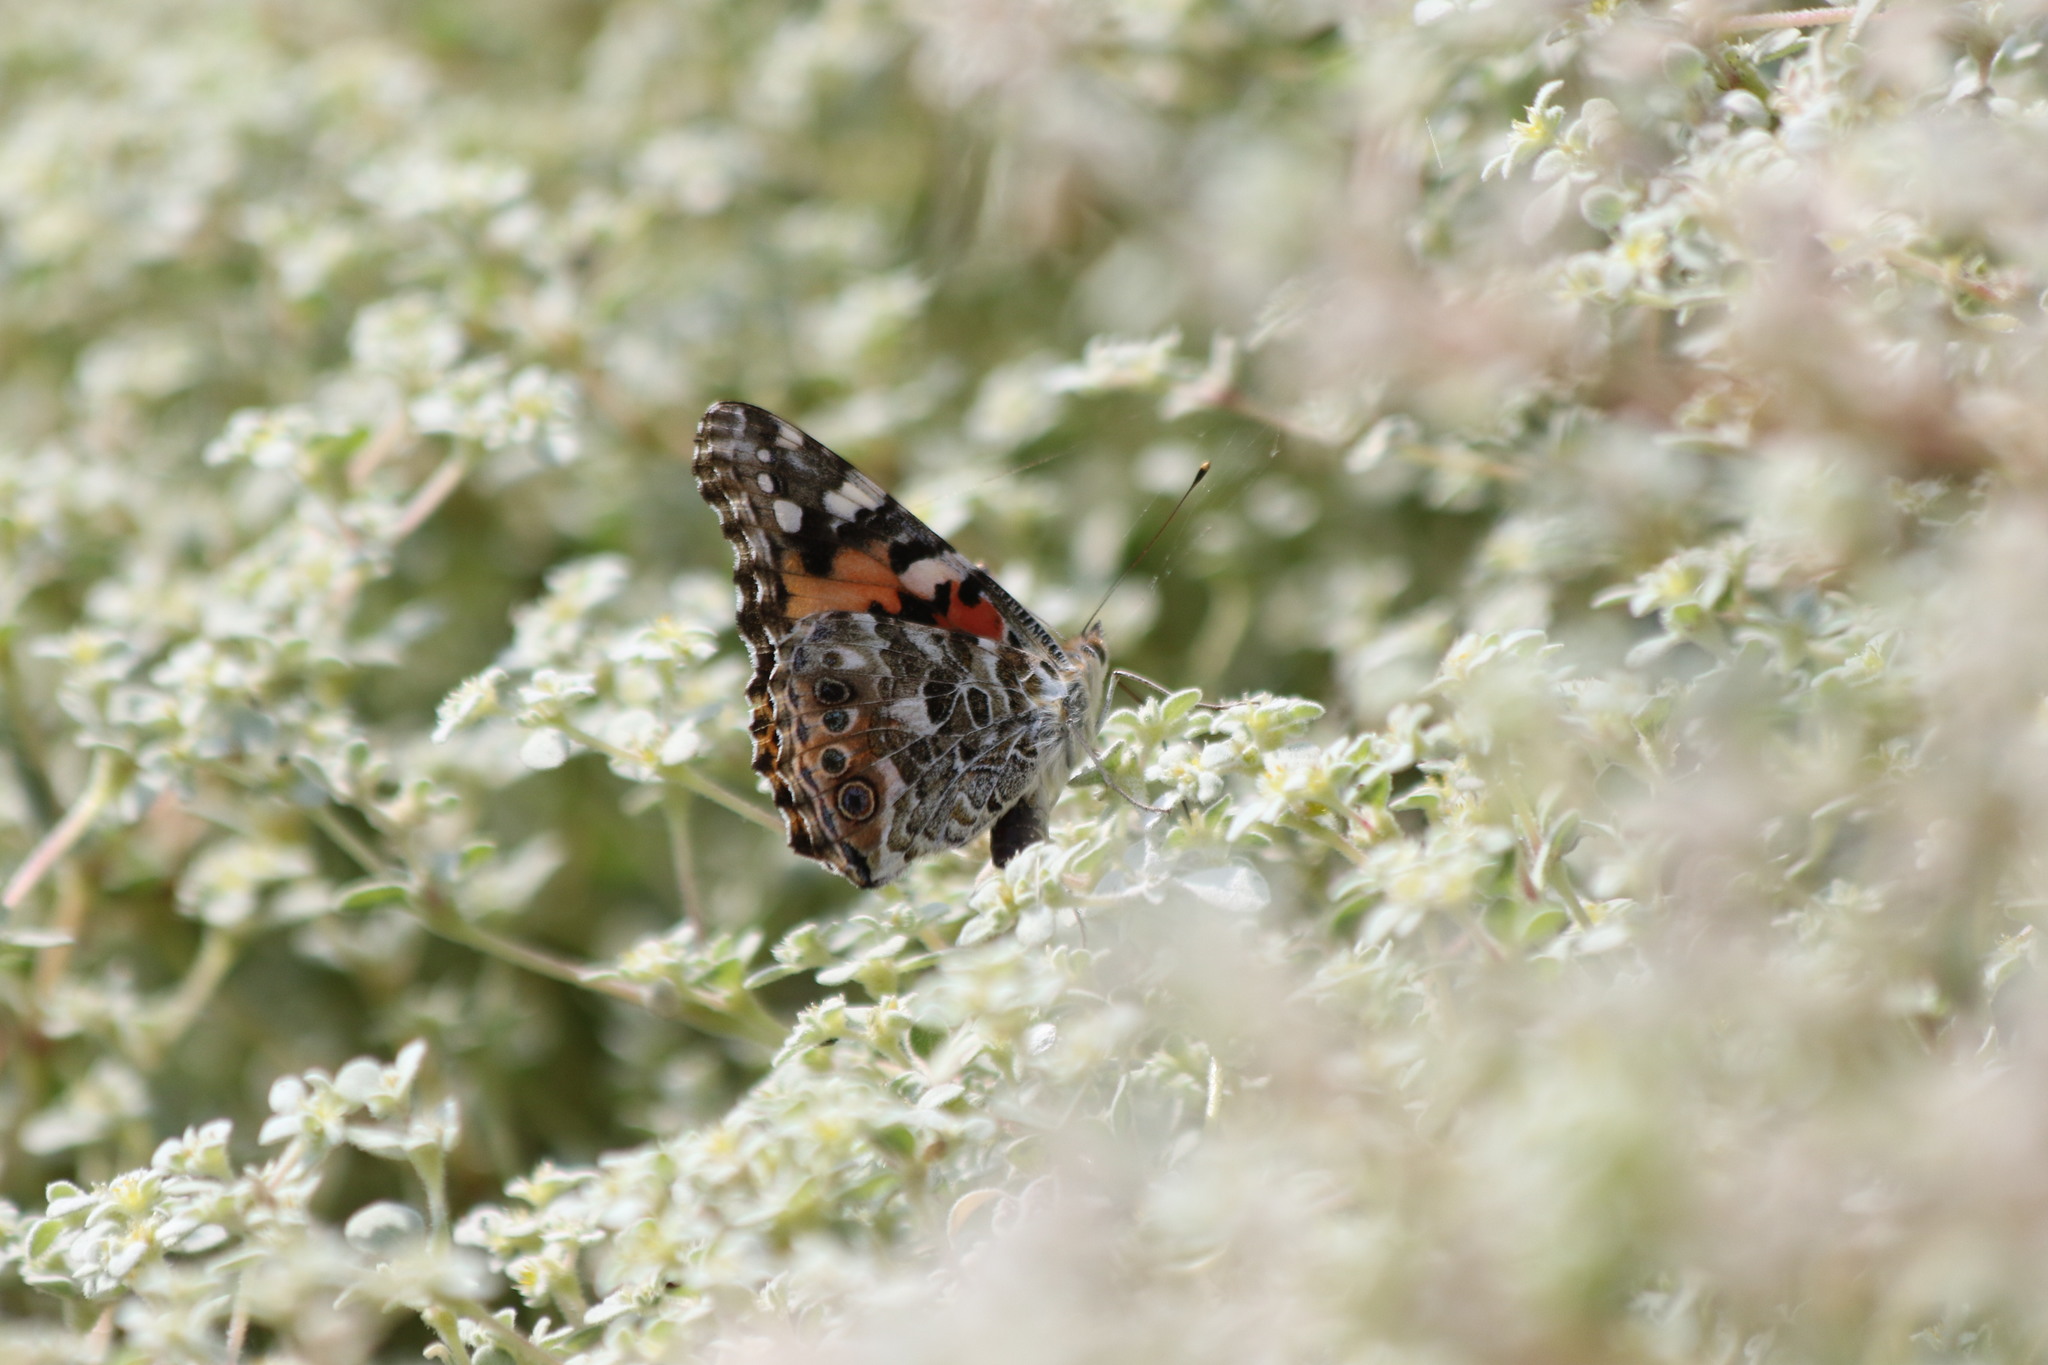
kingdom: Animalia
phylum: Arthropoda
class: Insecta
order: Lepidoptera
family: Nymphalidae
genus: Vanessa
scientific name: Vanessa cardui
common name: Painted lady
